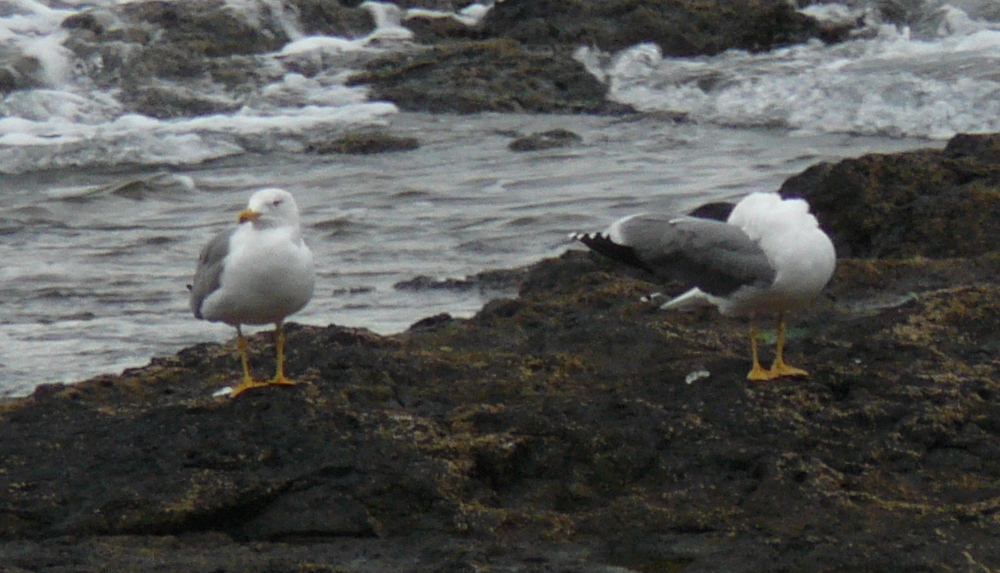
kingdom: Animalia
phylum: Chordata
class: Aves
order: Charadriiformes
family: Laridae
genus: Larus
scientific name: Larus michahellis
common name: Yellow-legged gull
